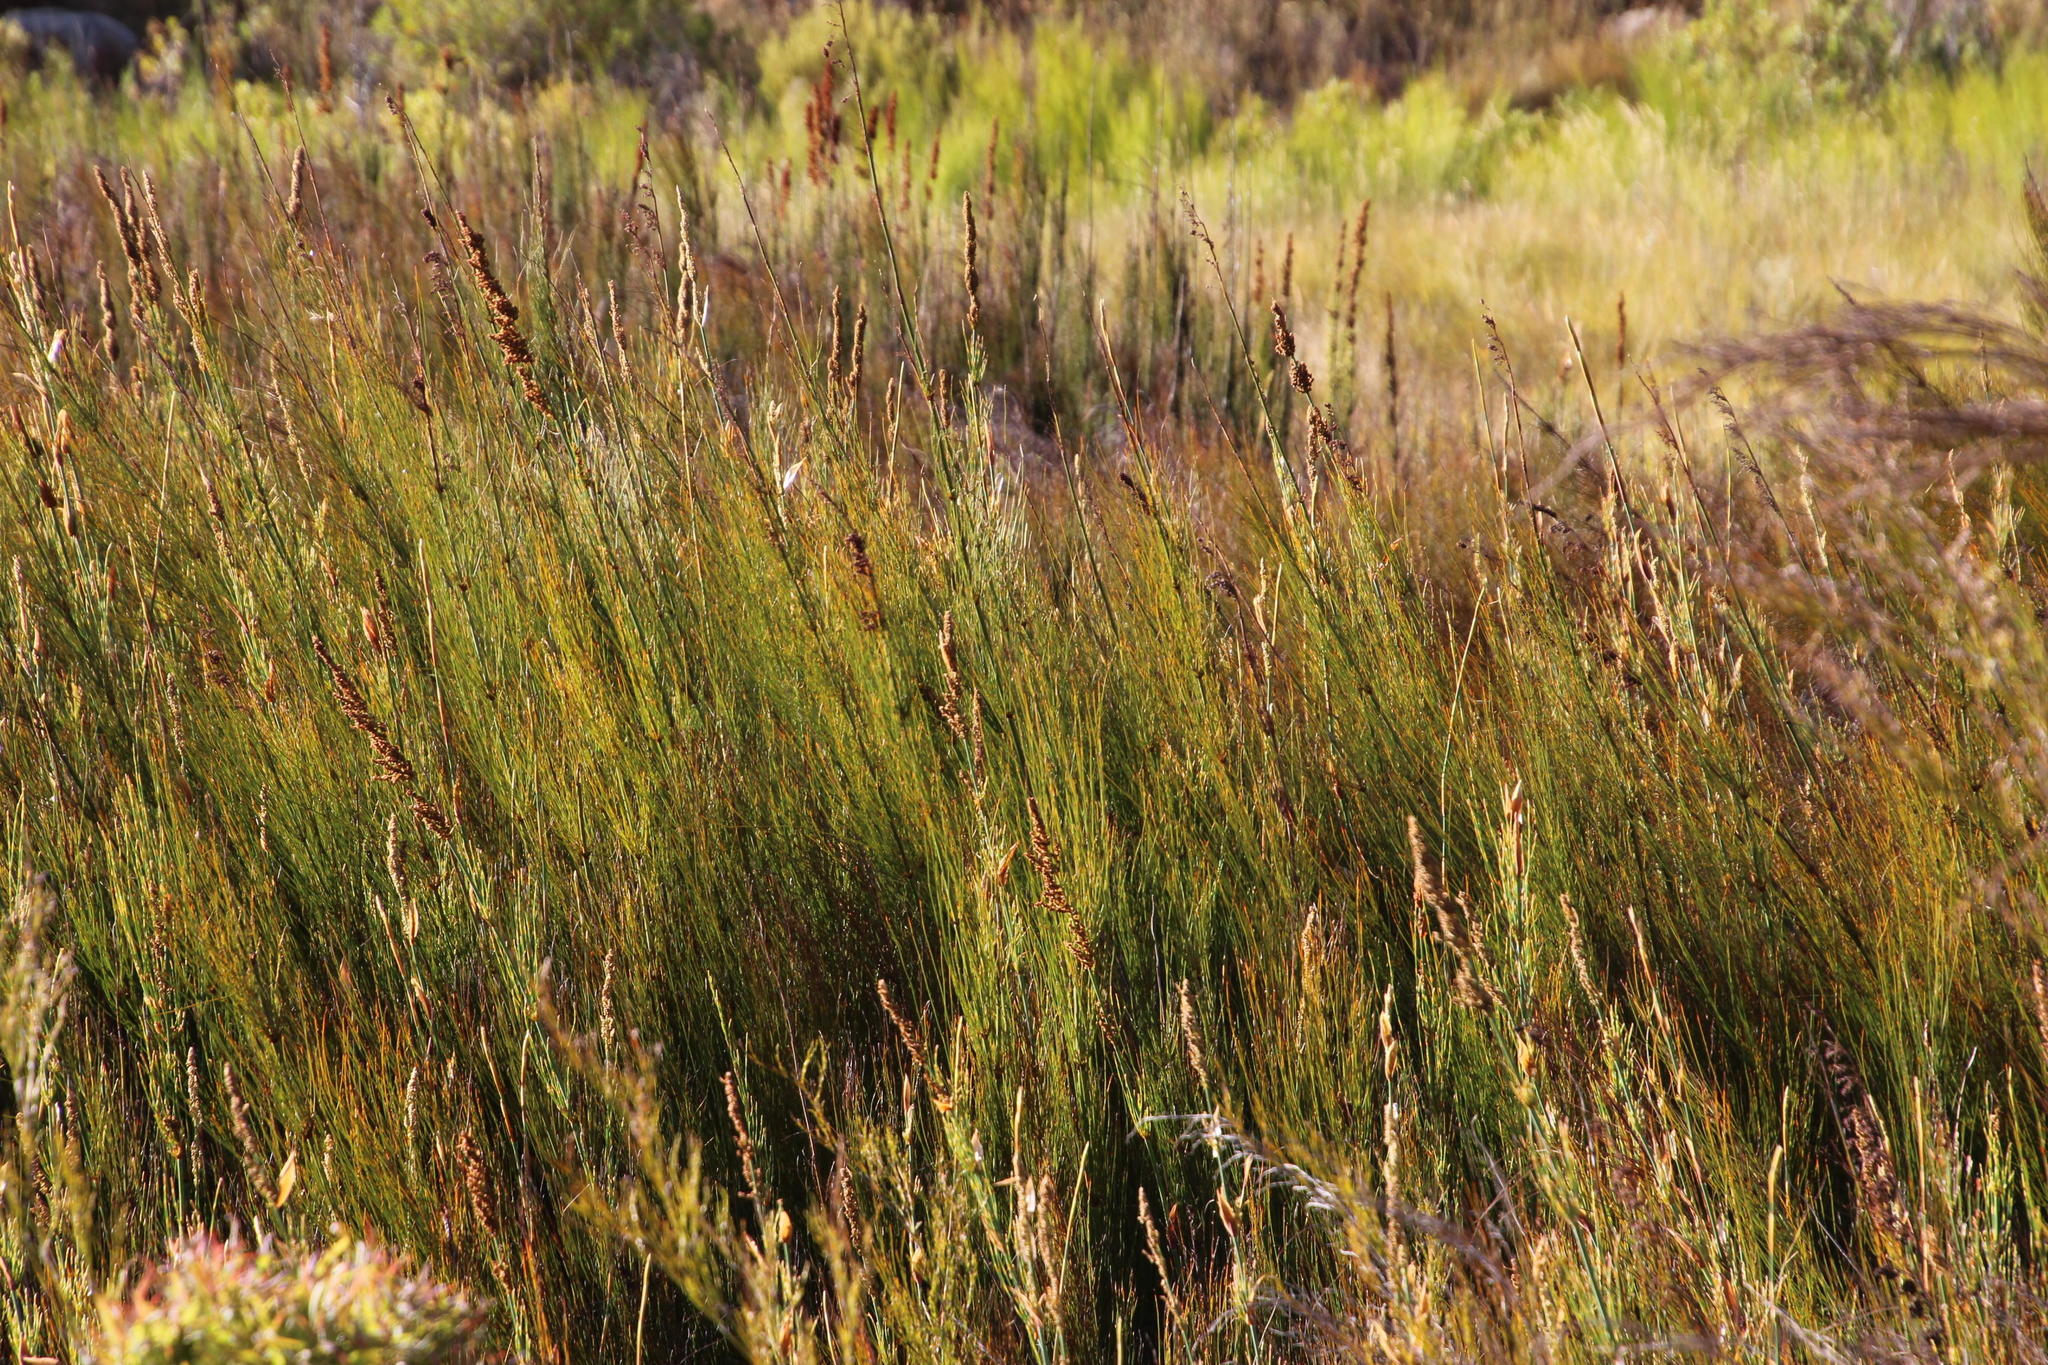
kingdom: Plantae
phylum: Tracheophyta
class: Liliopsida
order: Poales
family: Restionaceae
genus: Rhodocoma
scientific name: Rhodocoma capensis
